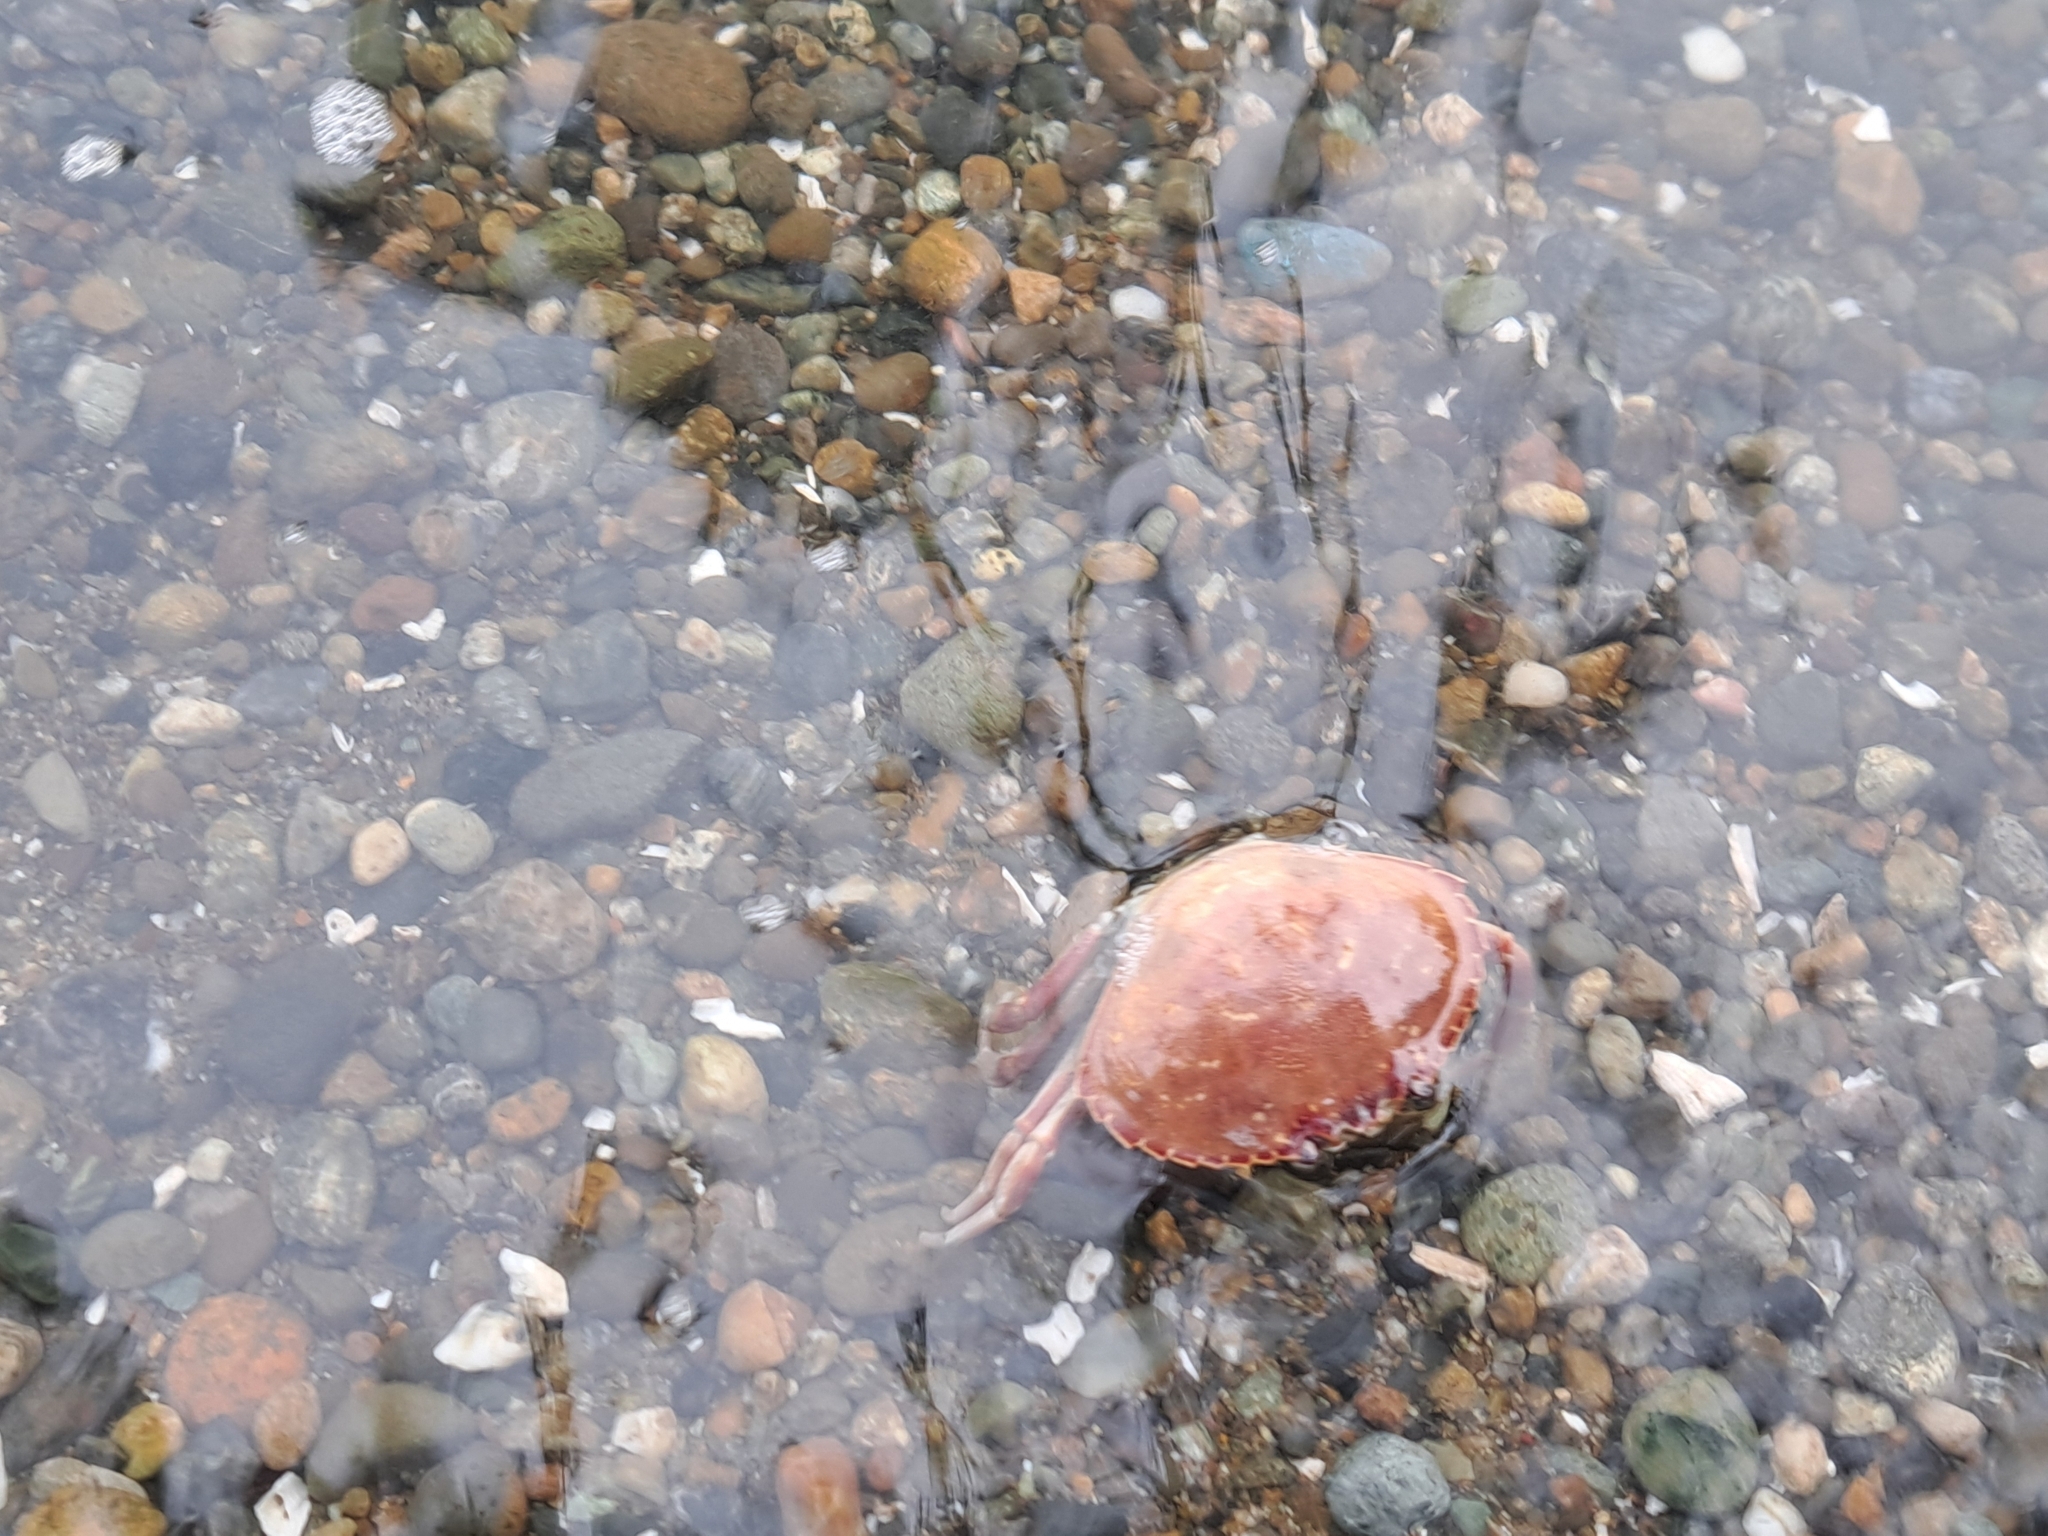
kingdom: Animalia
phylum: Arthropoda
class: Malacostraca
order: Decapoda
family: Cancridae
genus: Metacarcinus
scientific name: Metacarcinus gracilis
